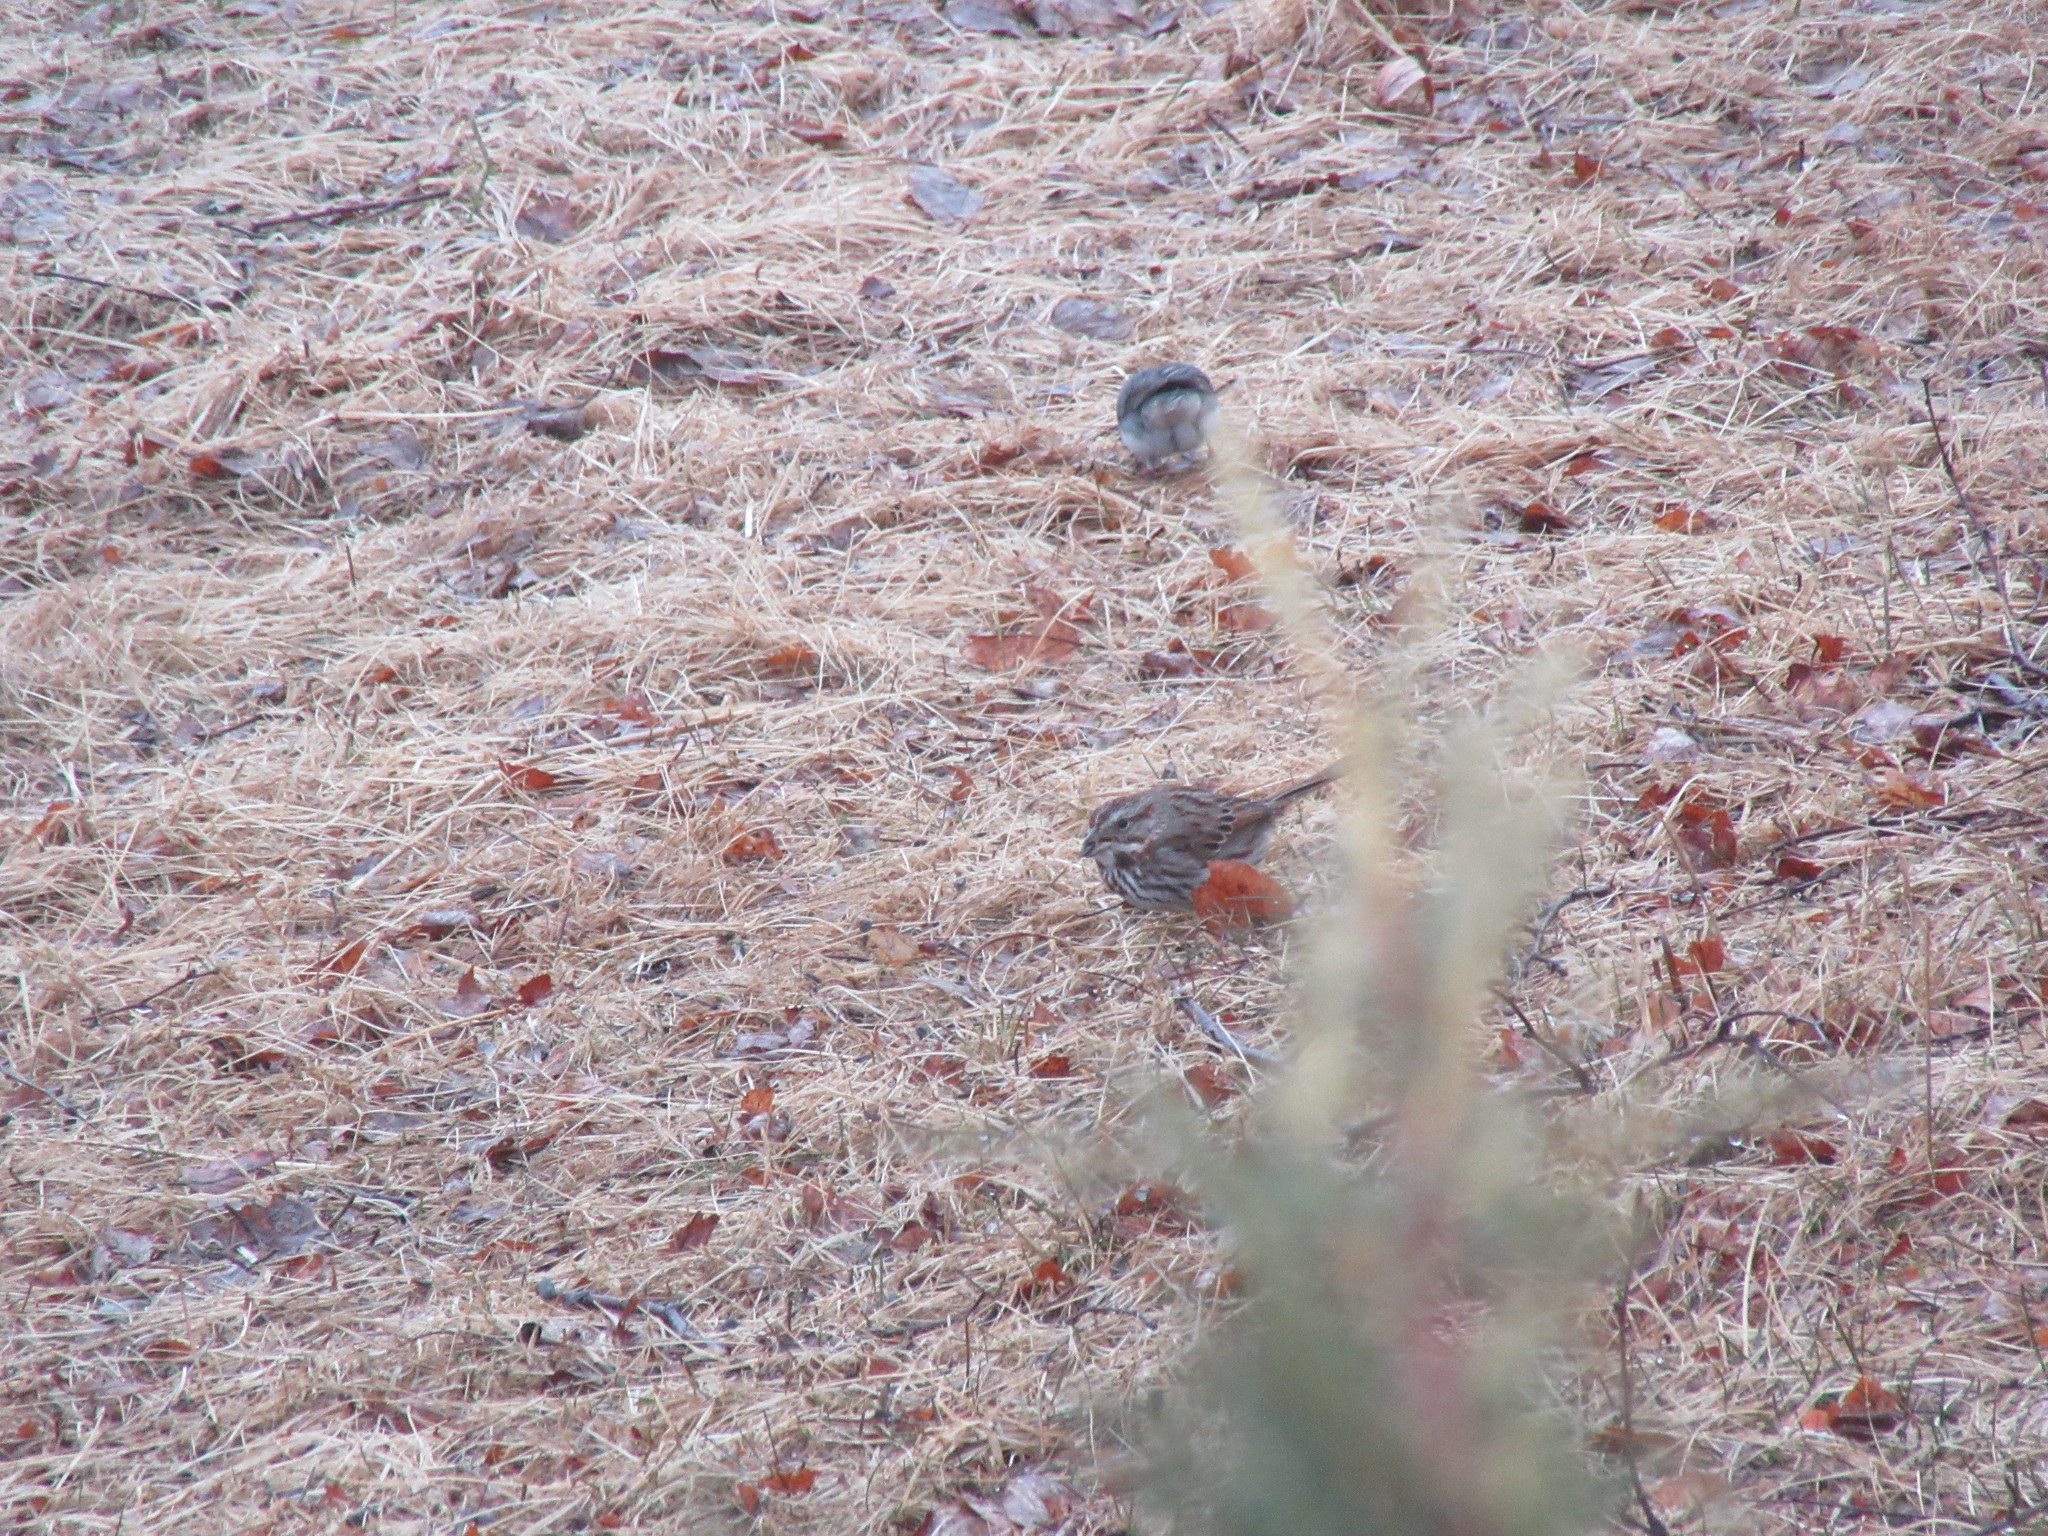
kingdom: Animalia
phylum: Chordata
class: Aves
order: Passeriformes
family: Passerellidae
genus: Melospiza
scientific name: Melospiza melodia
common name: Song sparrow
